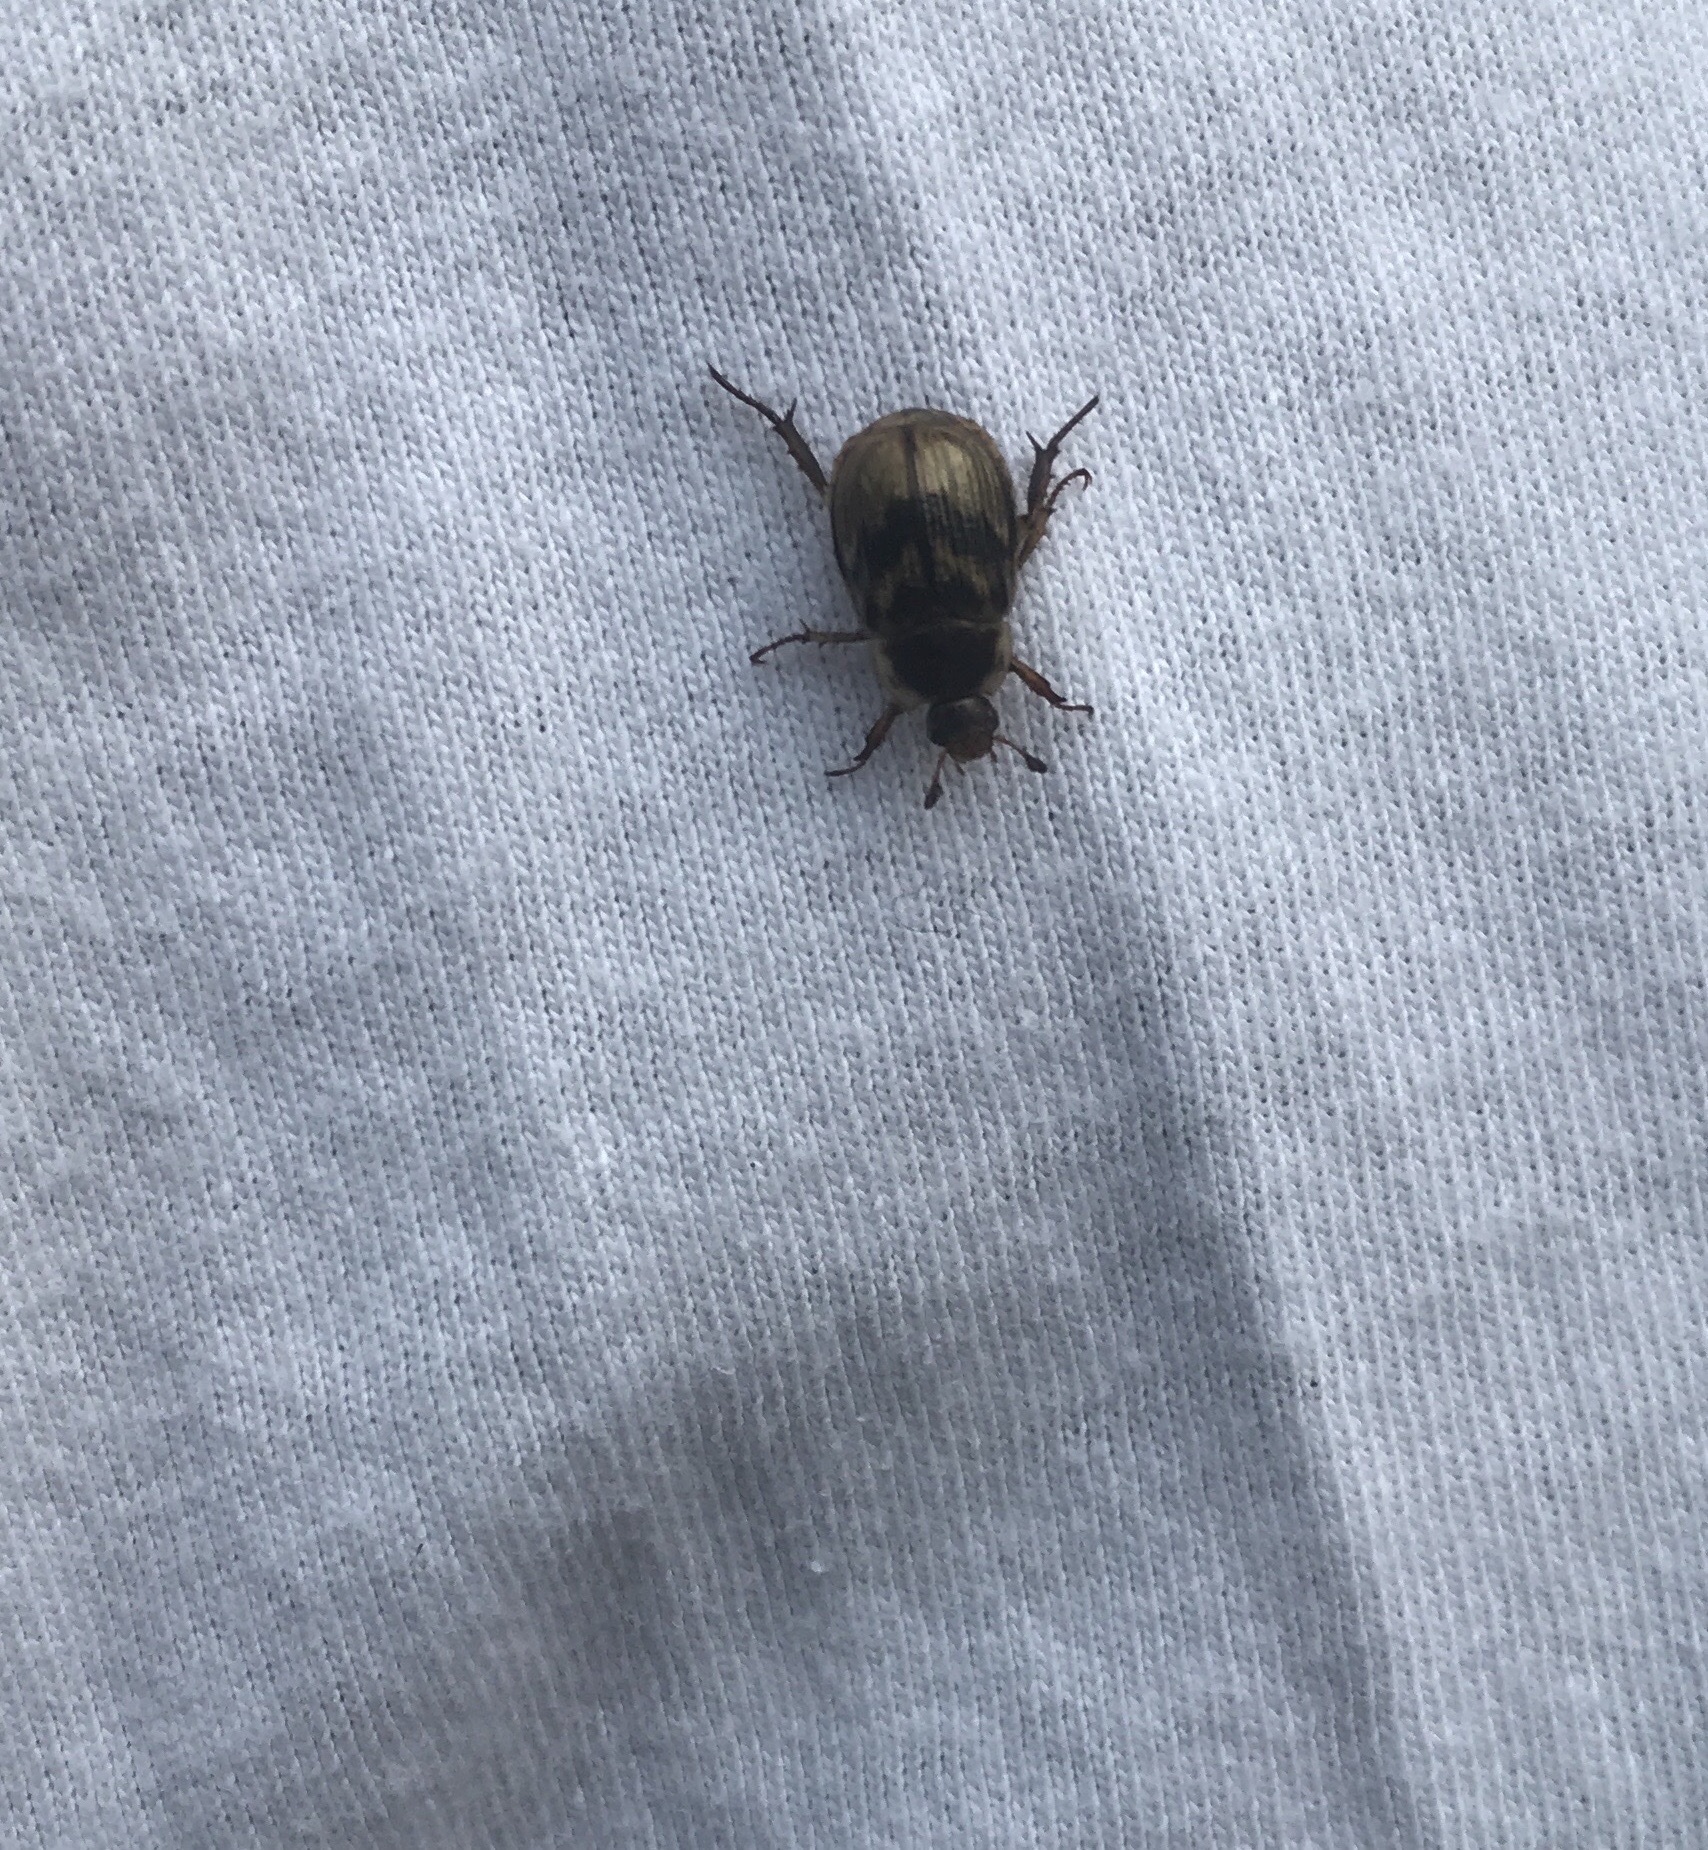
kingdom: Animalia
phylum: Arthropoda
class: Insecta
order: Coleoptera
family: Scarabaeidae
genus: Exomala
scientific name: Exomala orientalis
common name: Oriental beetle
